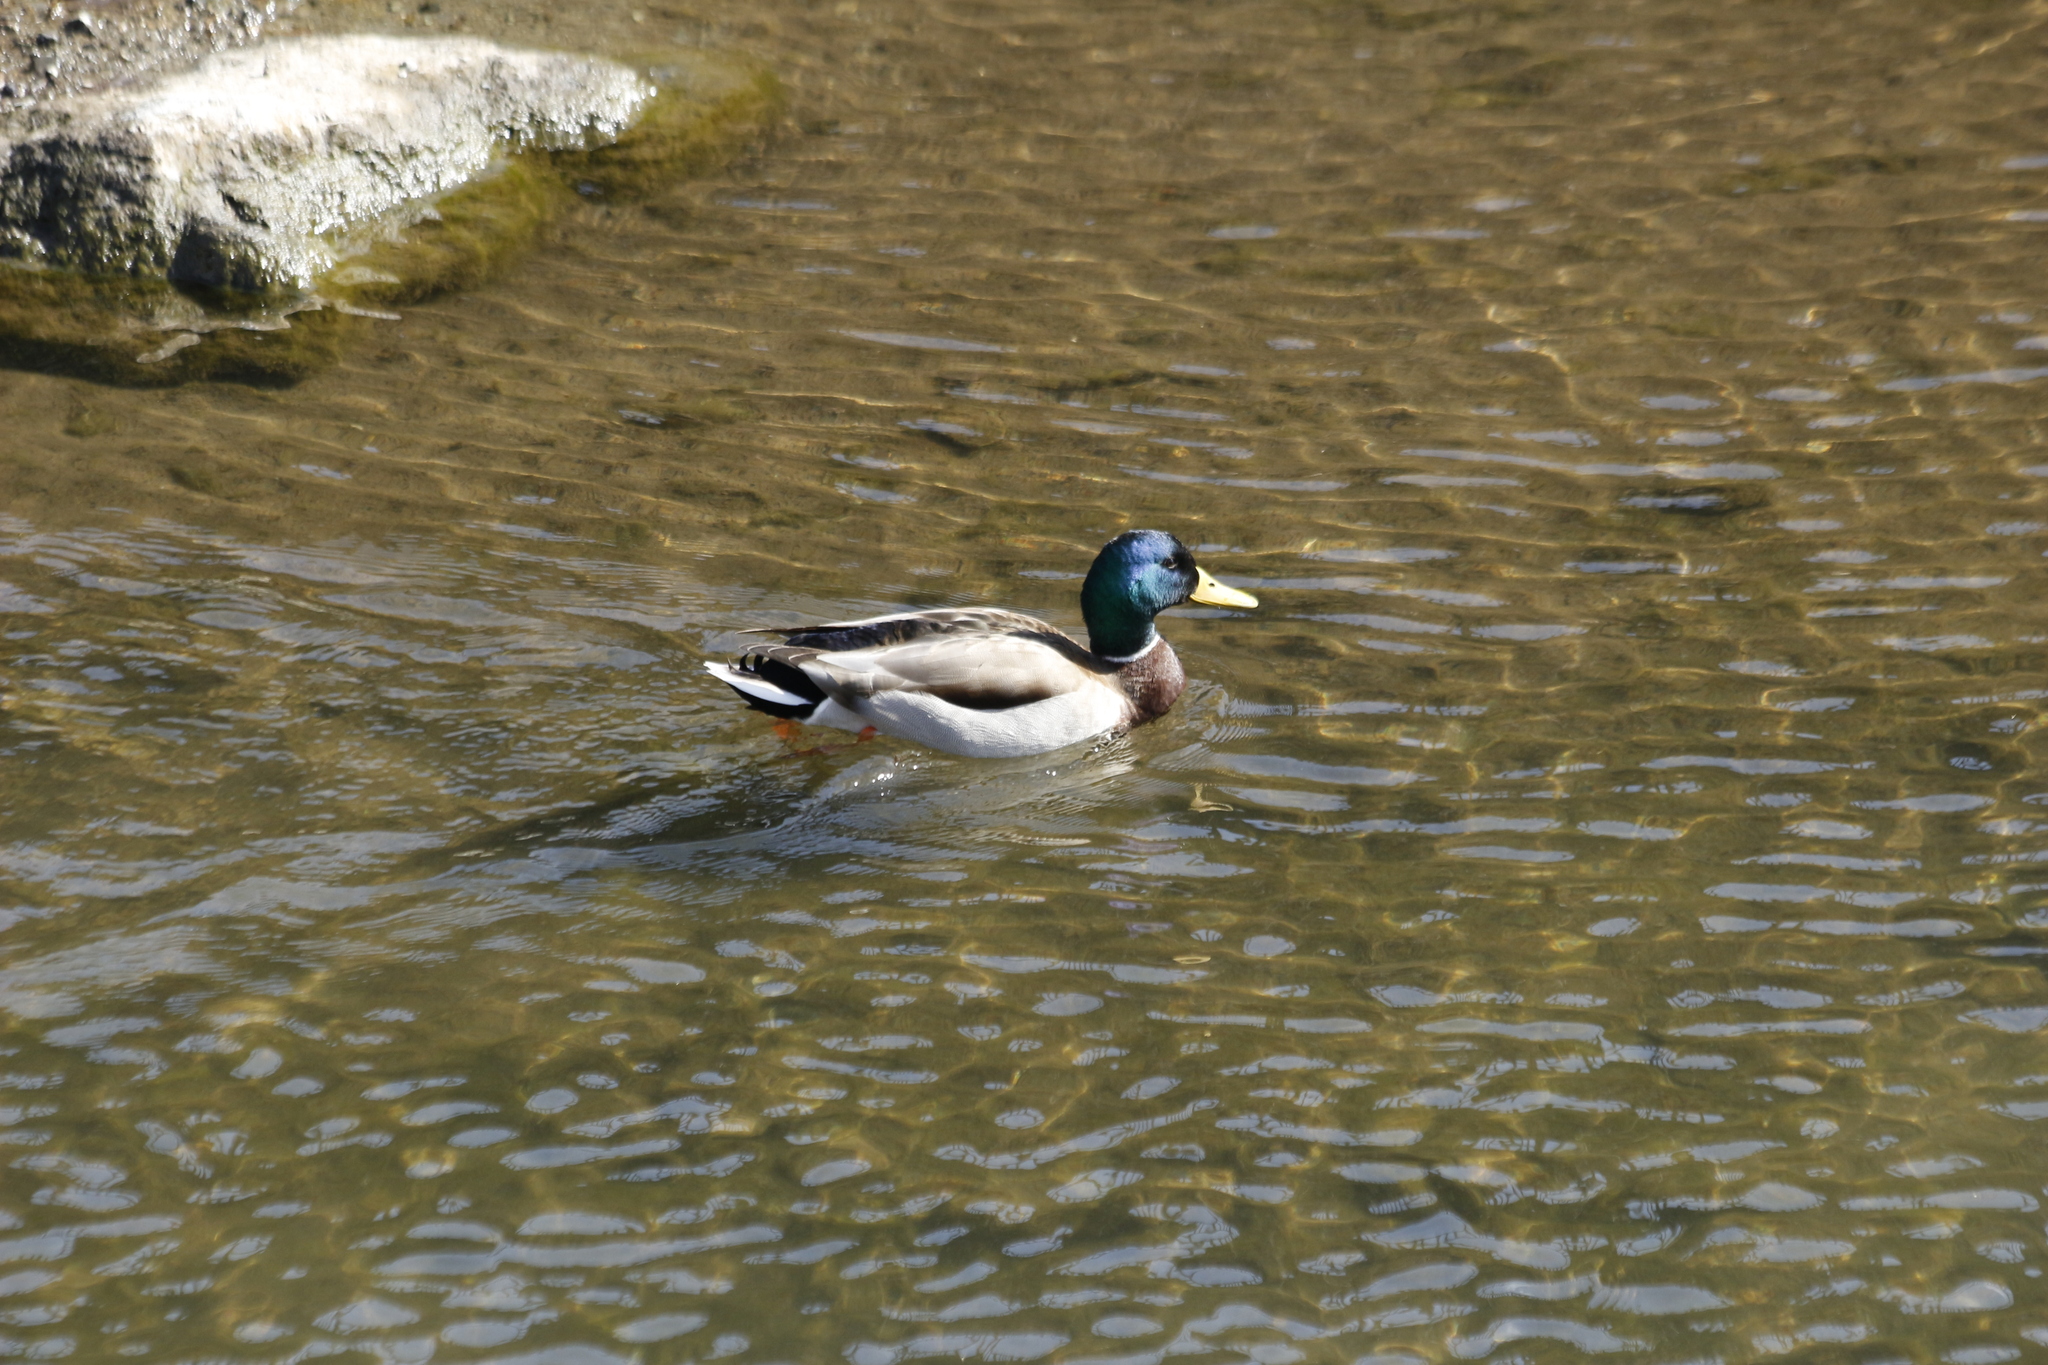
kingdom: Animalia
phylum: Chordata
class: Aves
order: Anseriformes
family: Anatidae
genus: Anas
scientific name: Anas platyrhynchos
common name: Mallard
